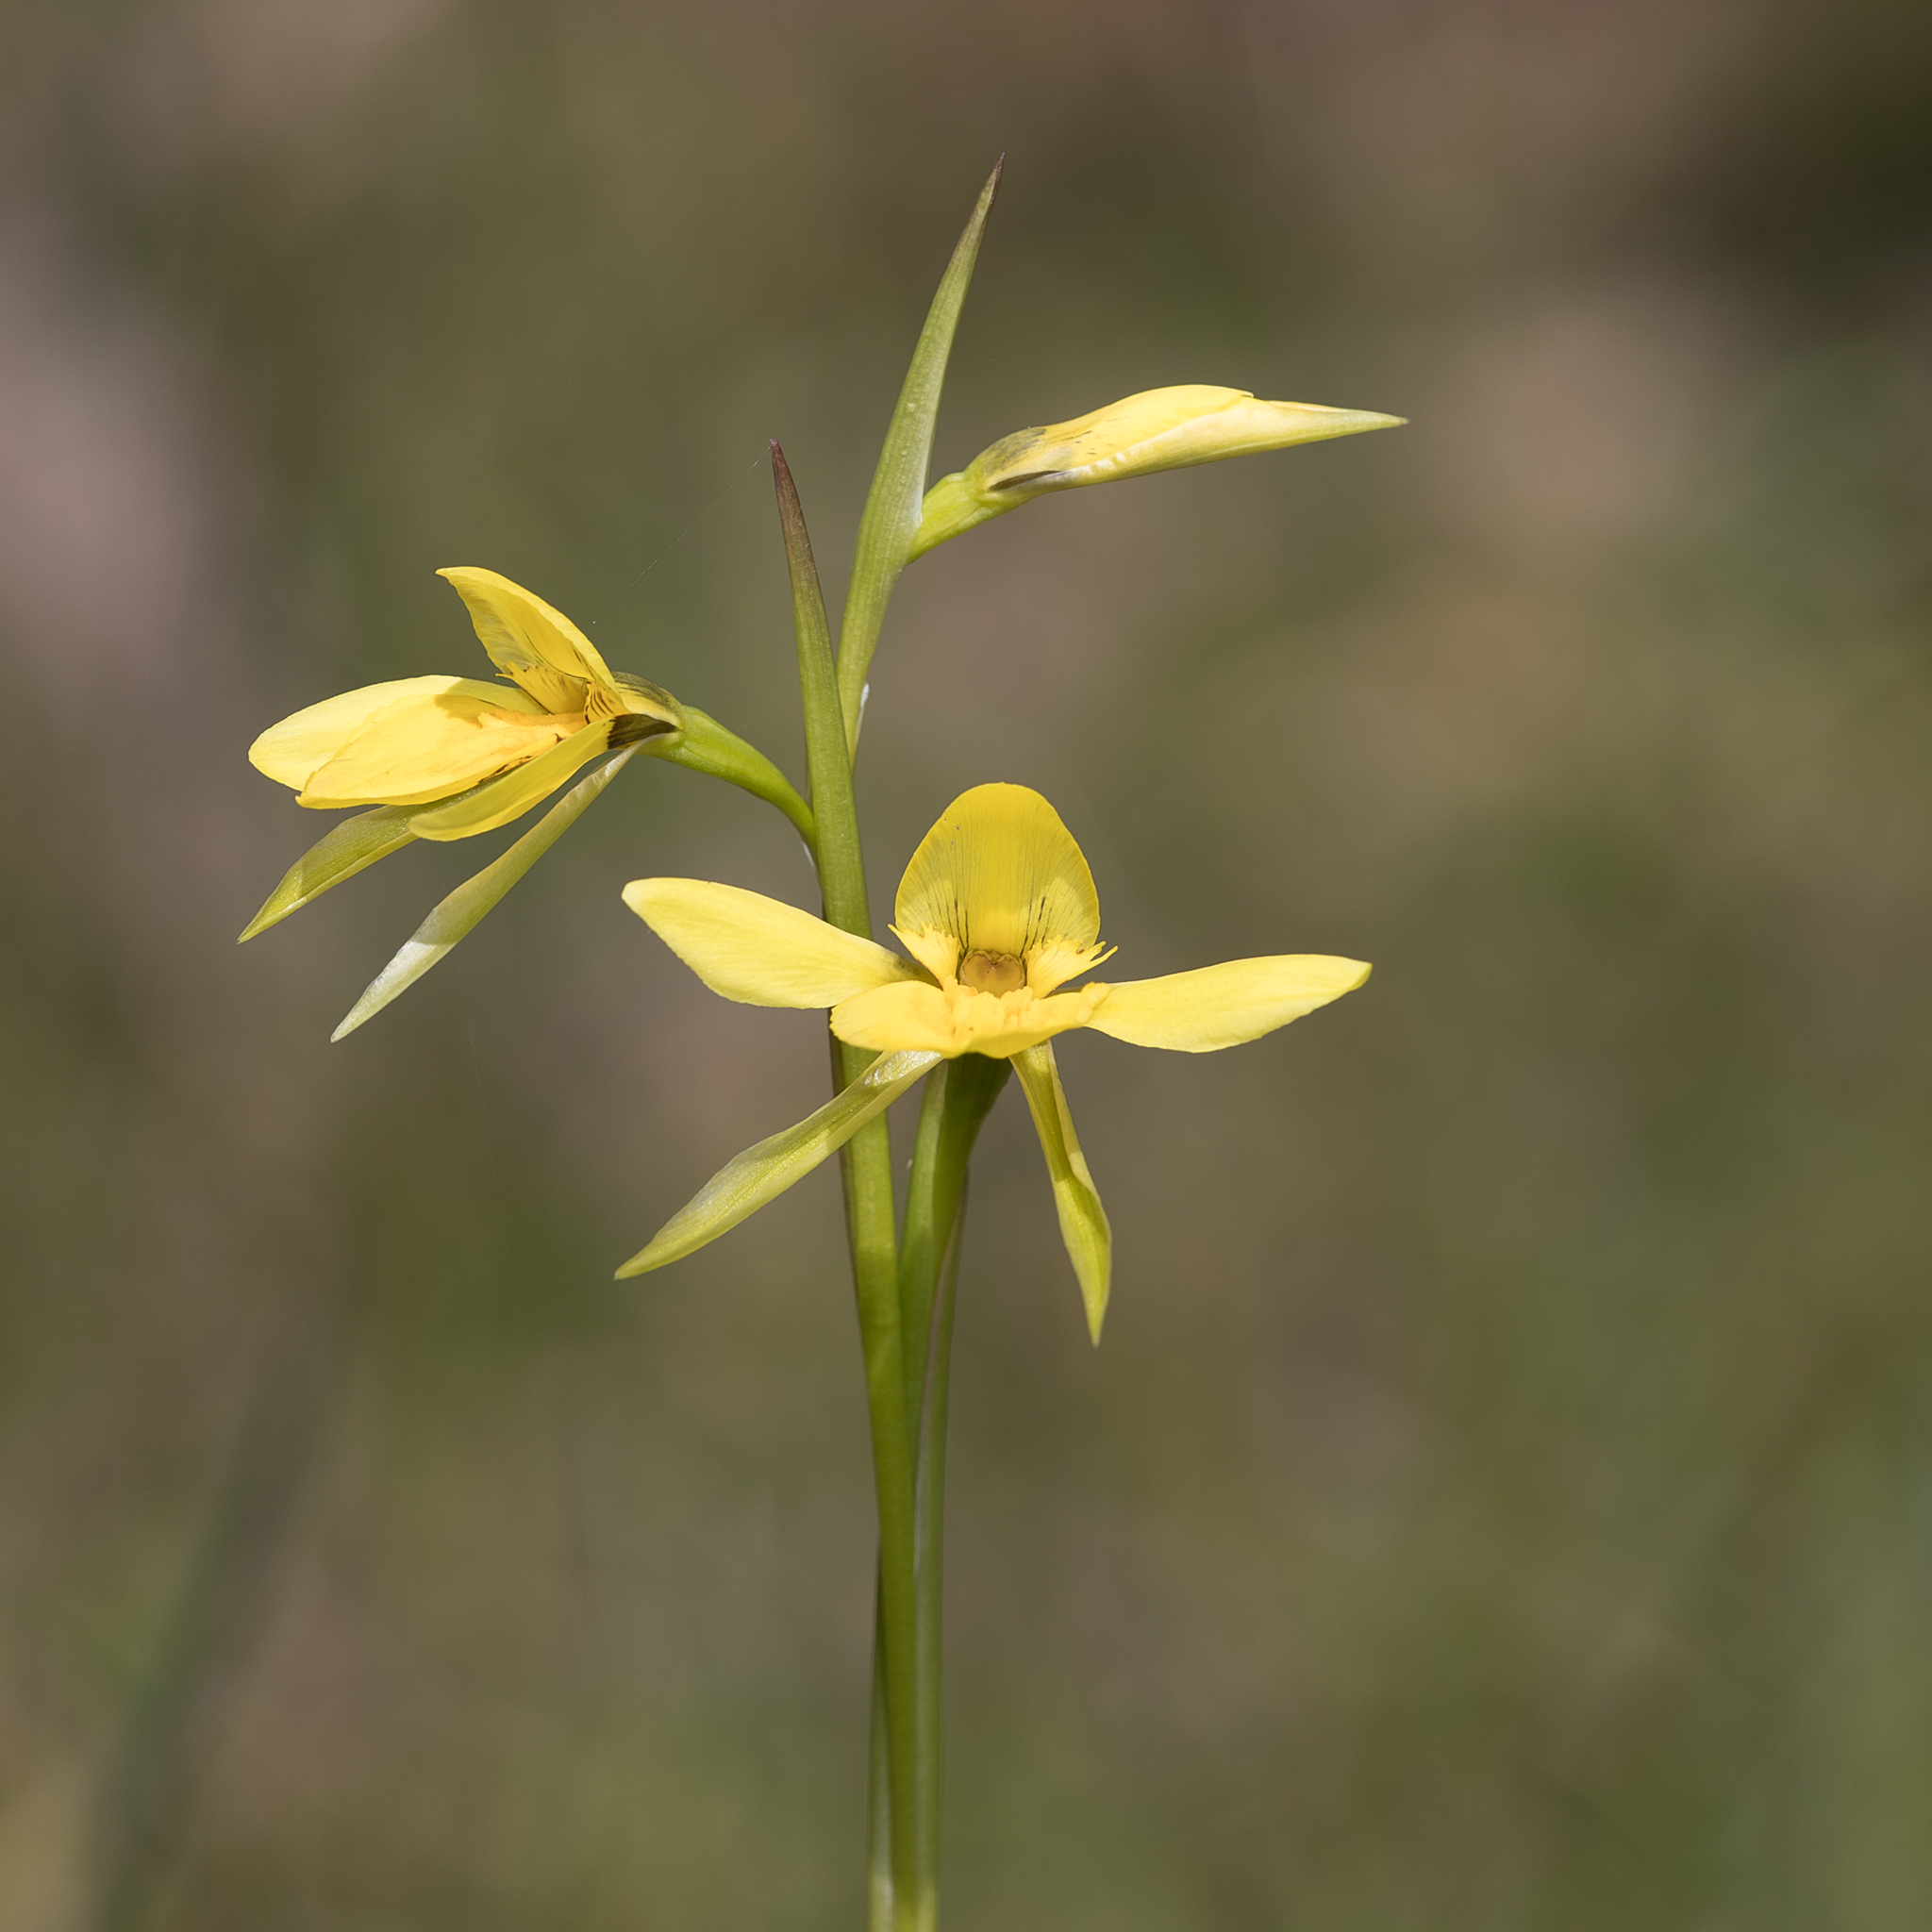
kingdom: Plantae
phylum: Tracheophyta
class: Liliopsida
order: Asparagales
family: Orchidaceae
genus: Diuris
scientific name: Diuris behrii
